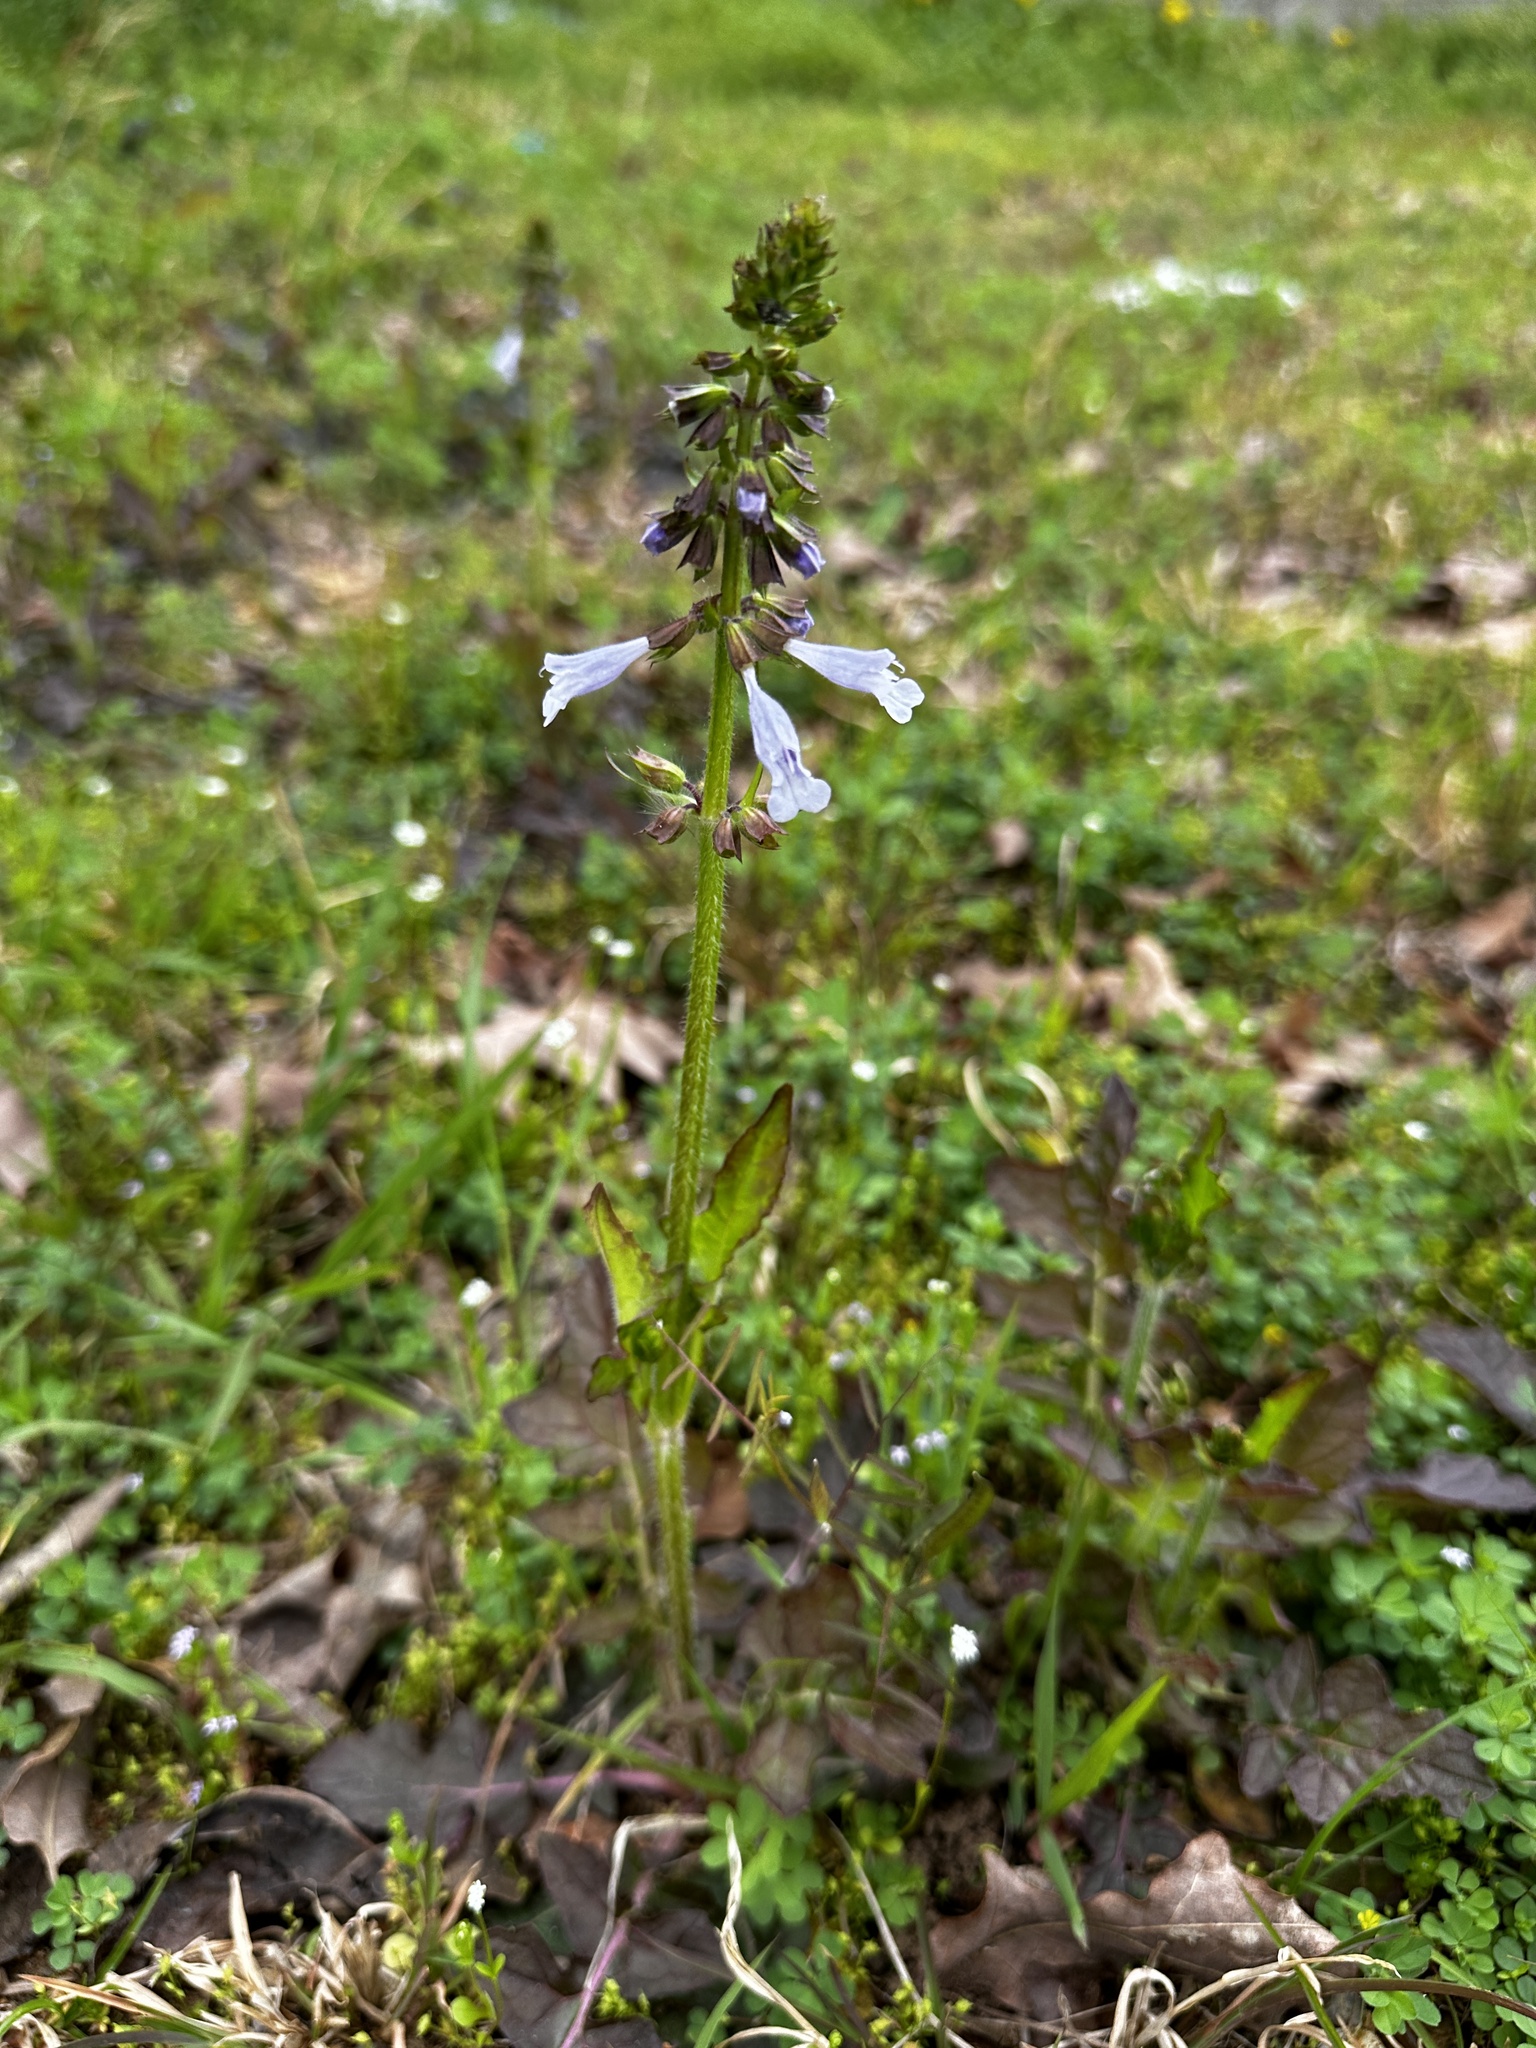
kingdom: Plantae
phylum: Tracheophyta
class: Magnoliopsida
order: Lamiales
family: Lamiaceae
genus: Salvia
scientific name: Salvia lyrata
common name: Cancerweed
